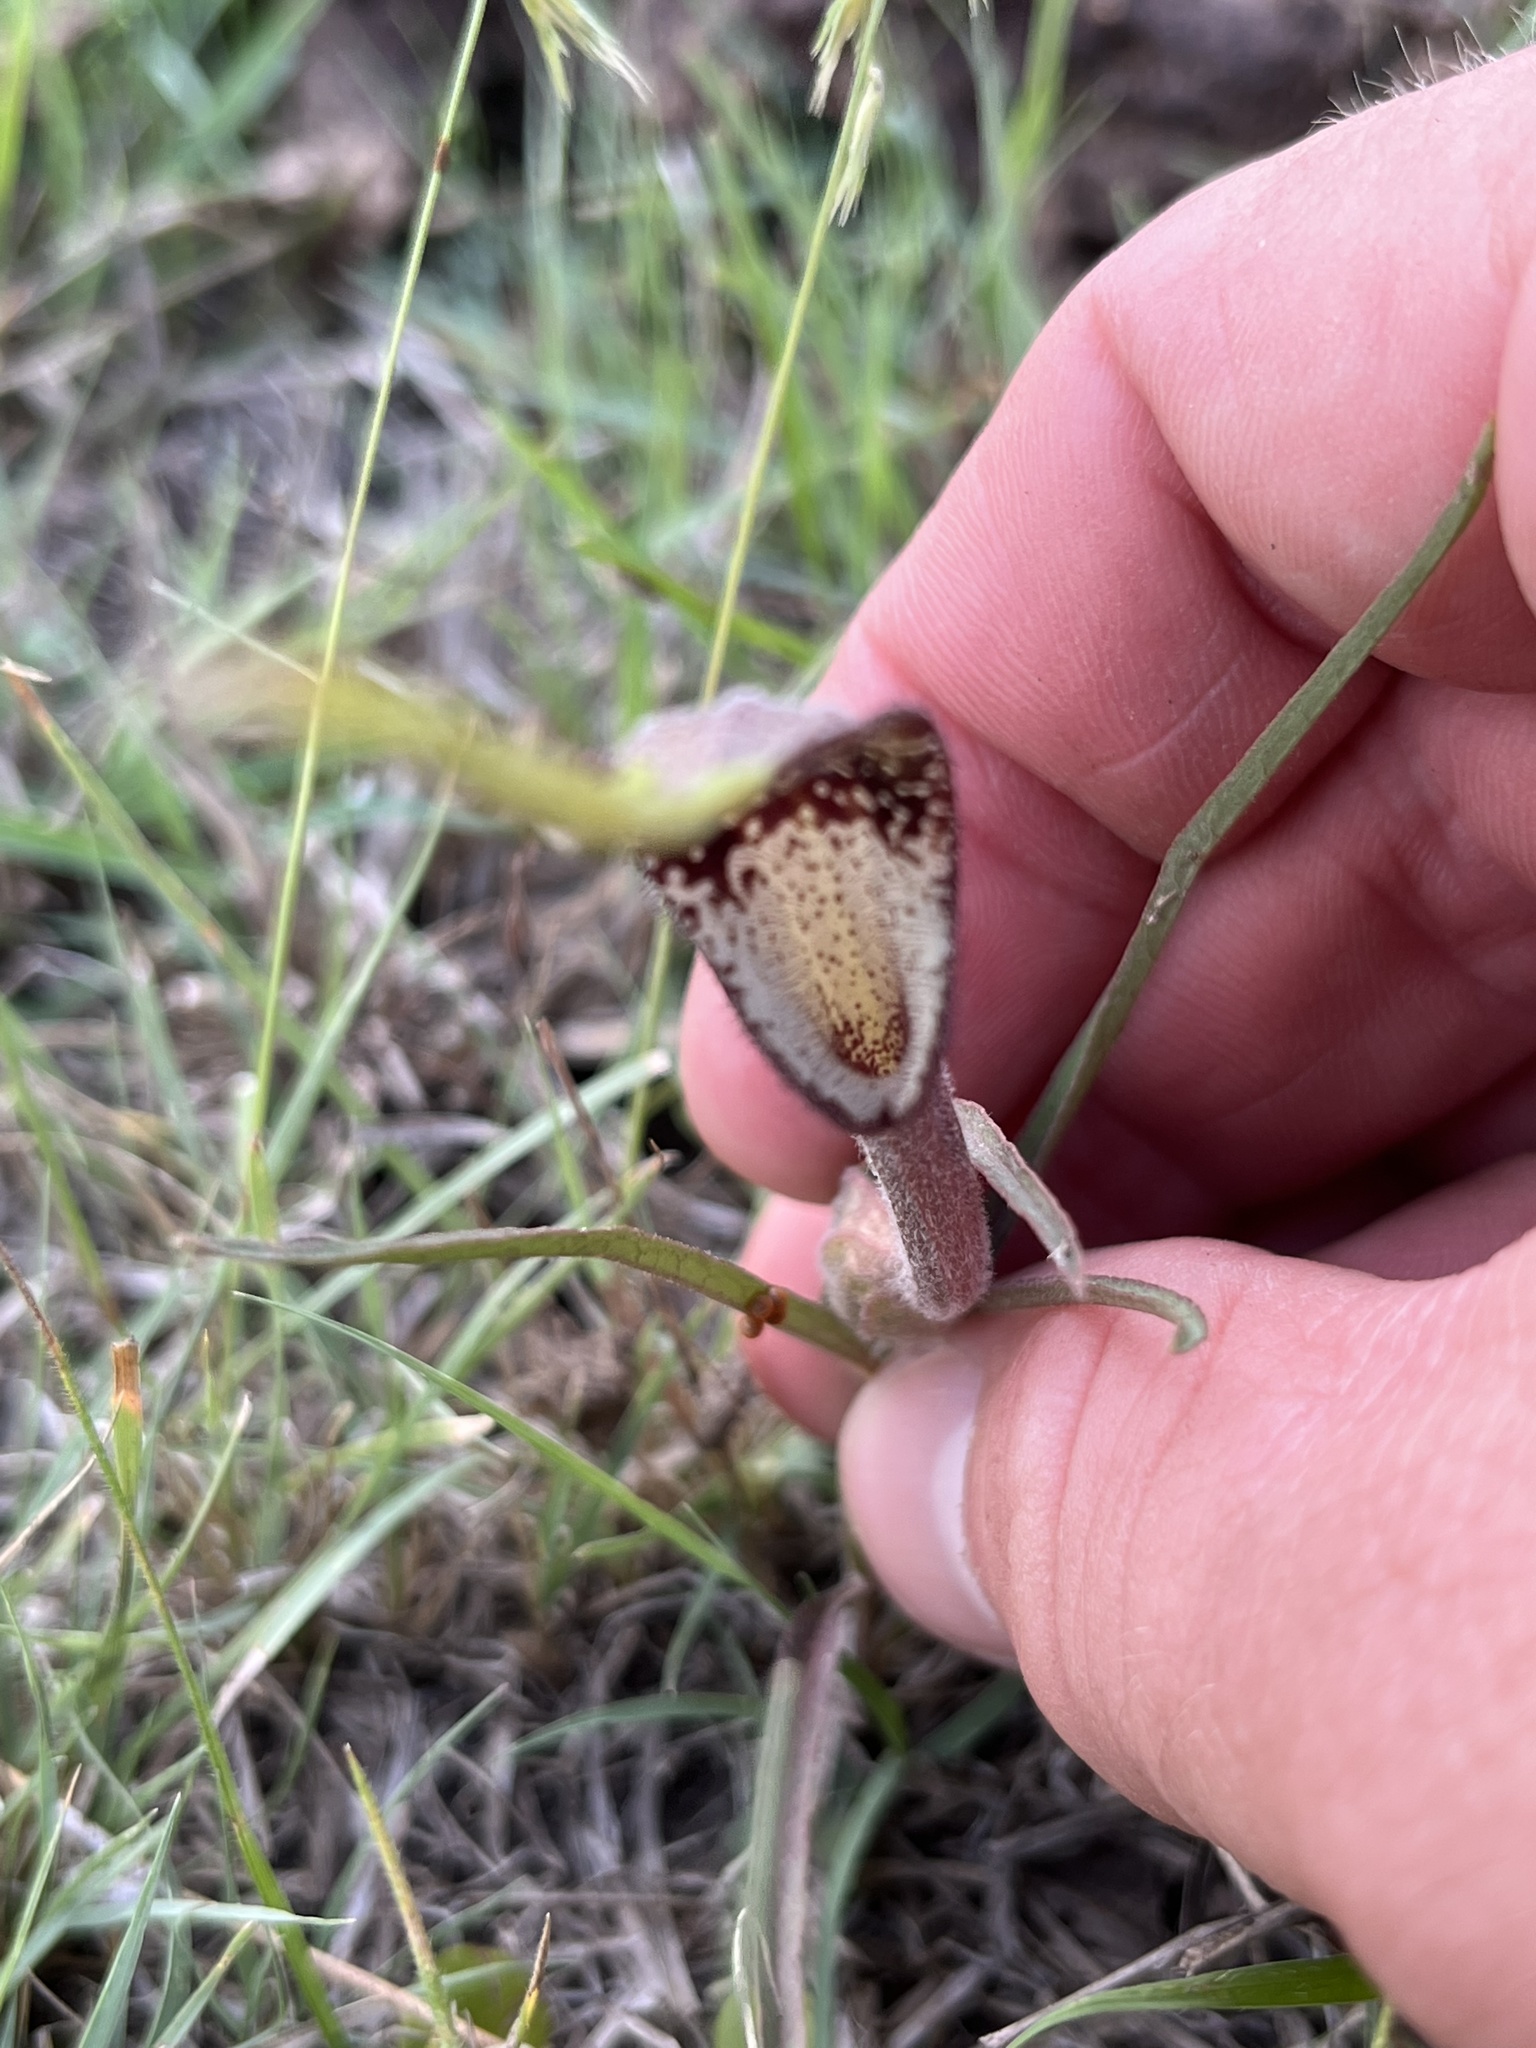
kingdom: Plantae
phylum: Tracheophyta
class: Magnoliopsida
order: Piperales
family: Aristolochiaceae
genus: Aristolochia
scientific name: Aristolochia erecta
